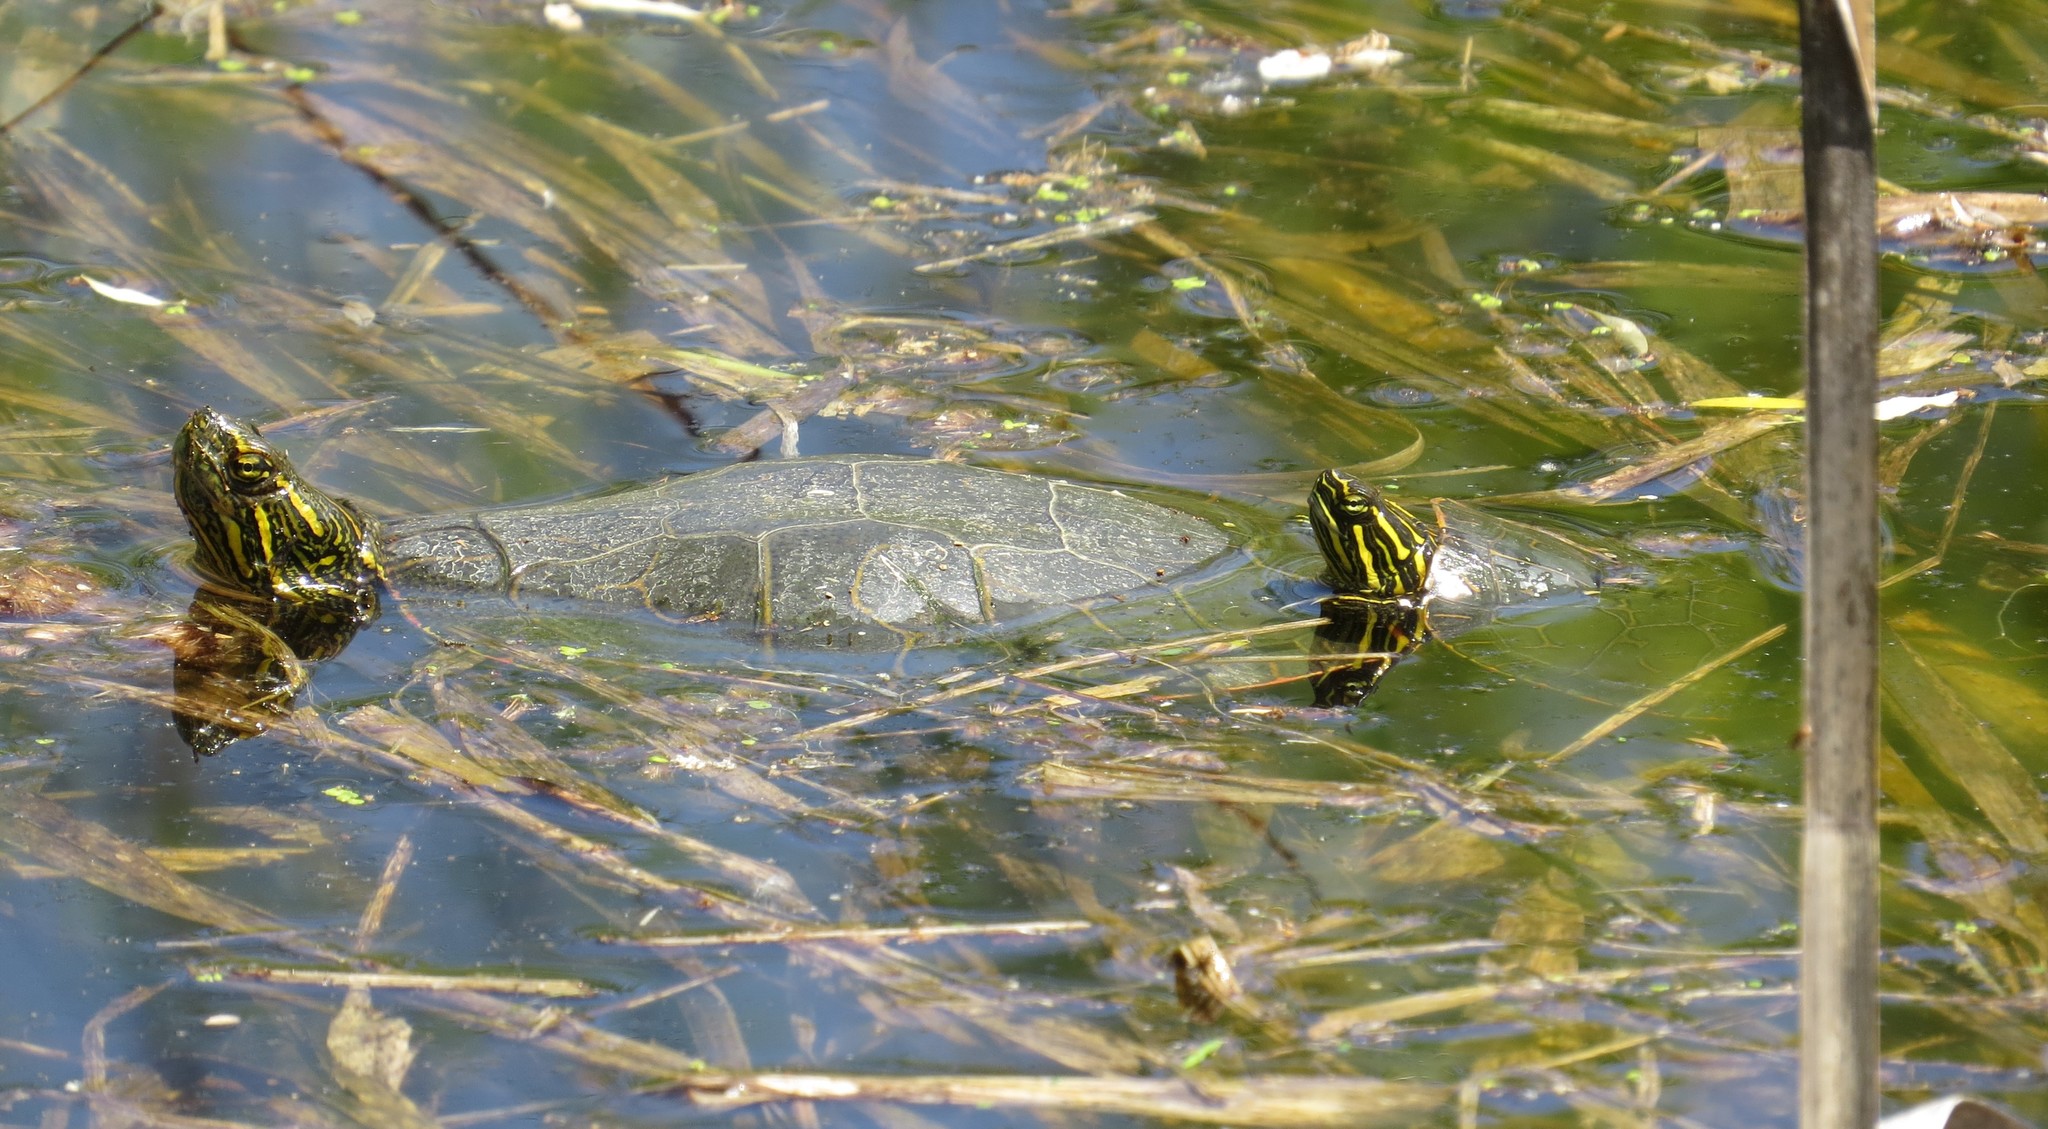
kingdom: Animalia
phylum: Chordata
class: Testudines
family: Emydidae
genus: Chrysemys
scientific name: Chrysemys picta
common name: Painted turtle
